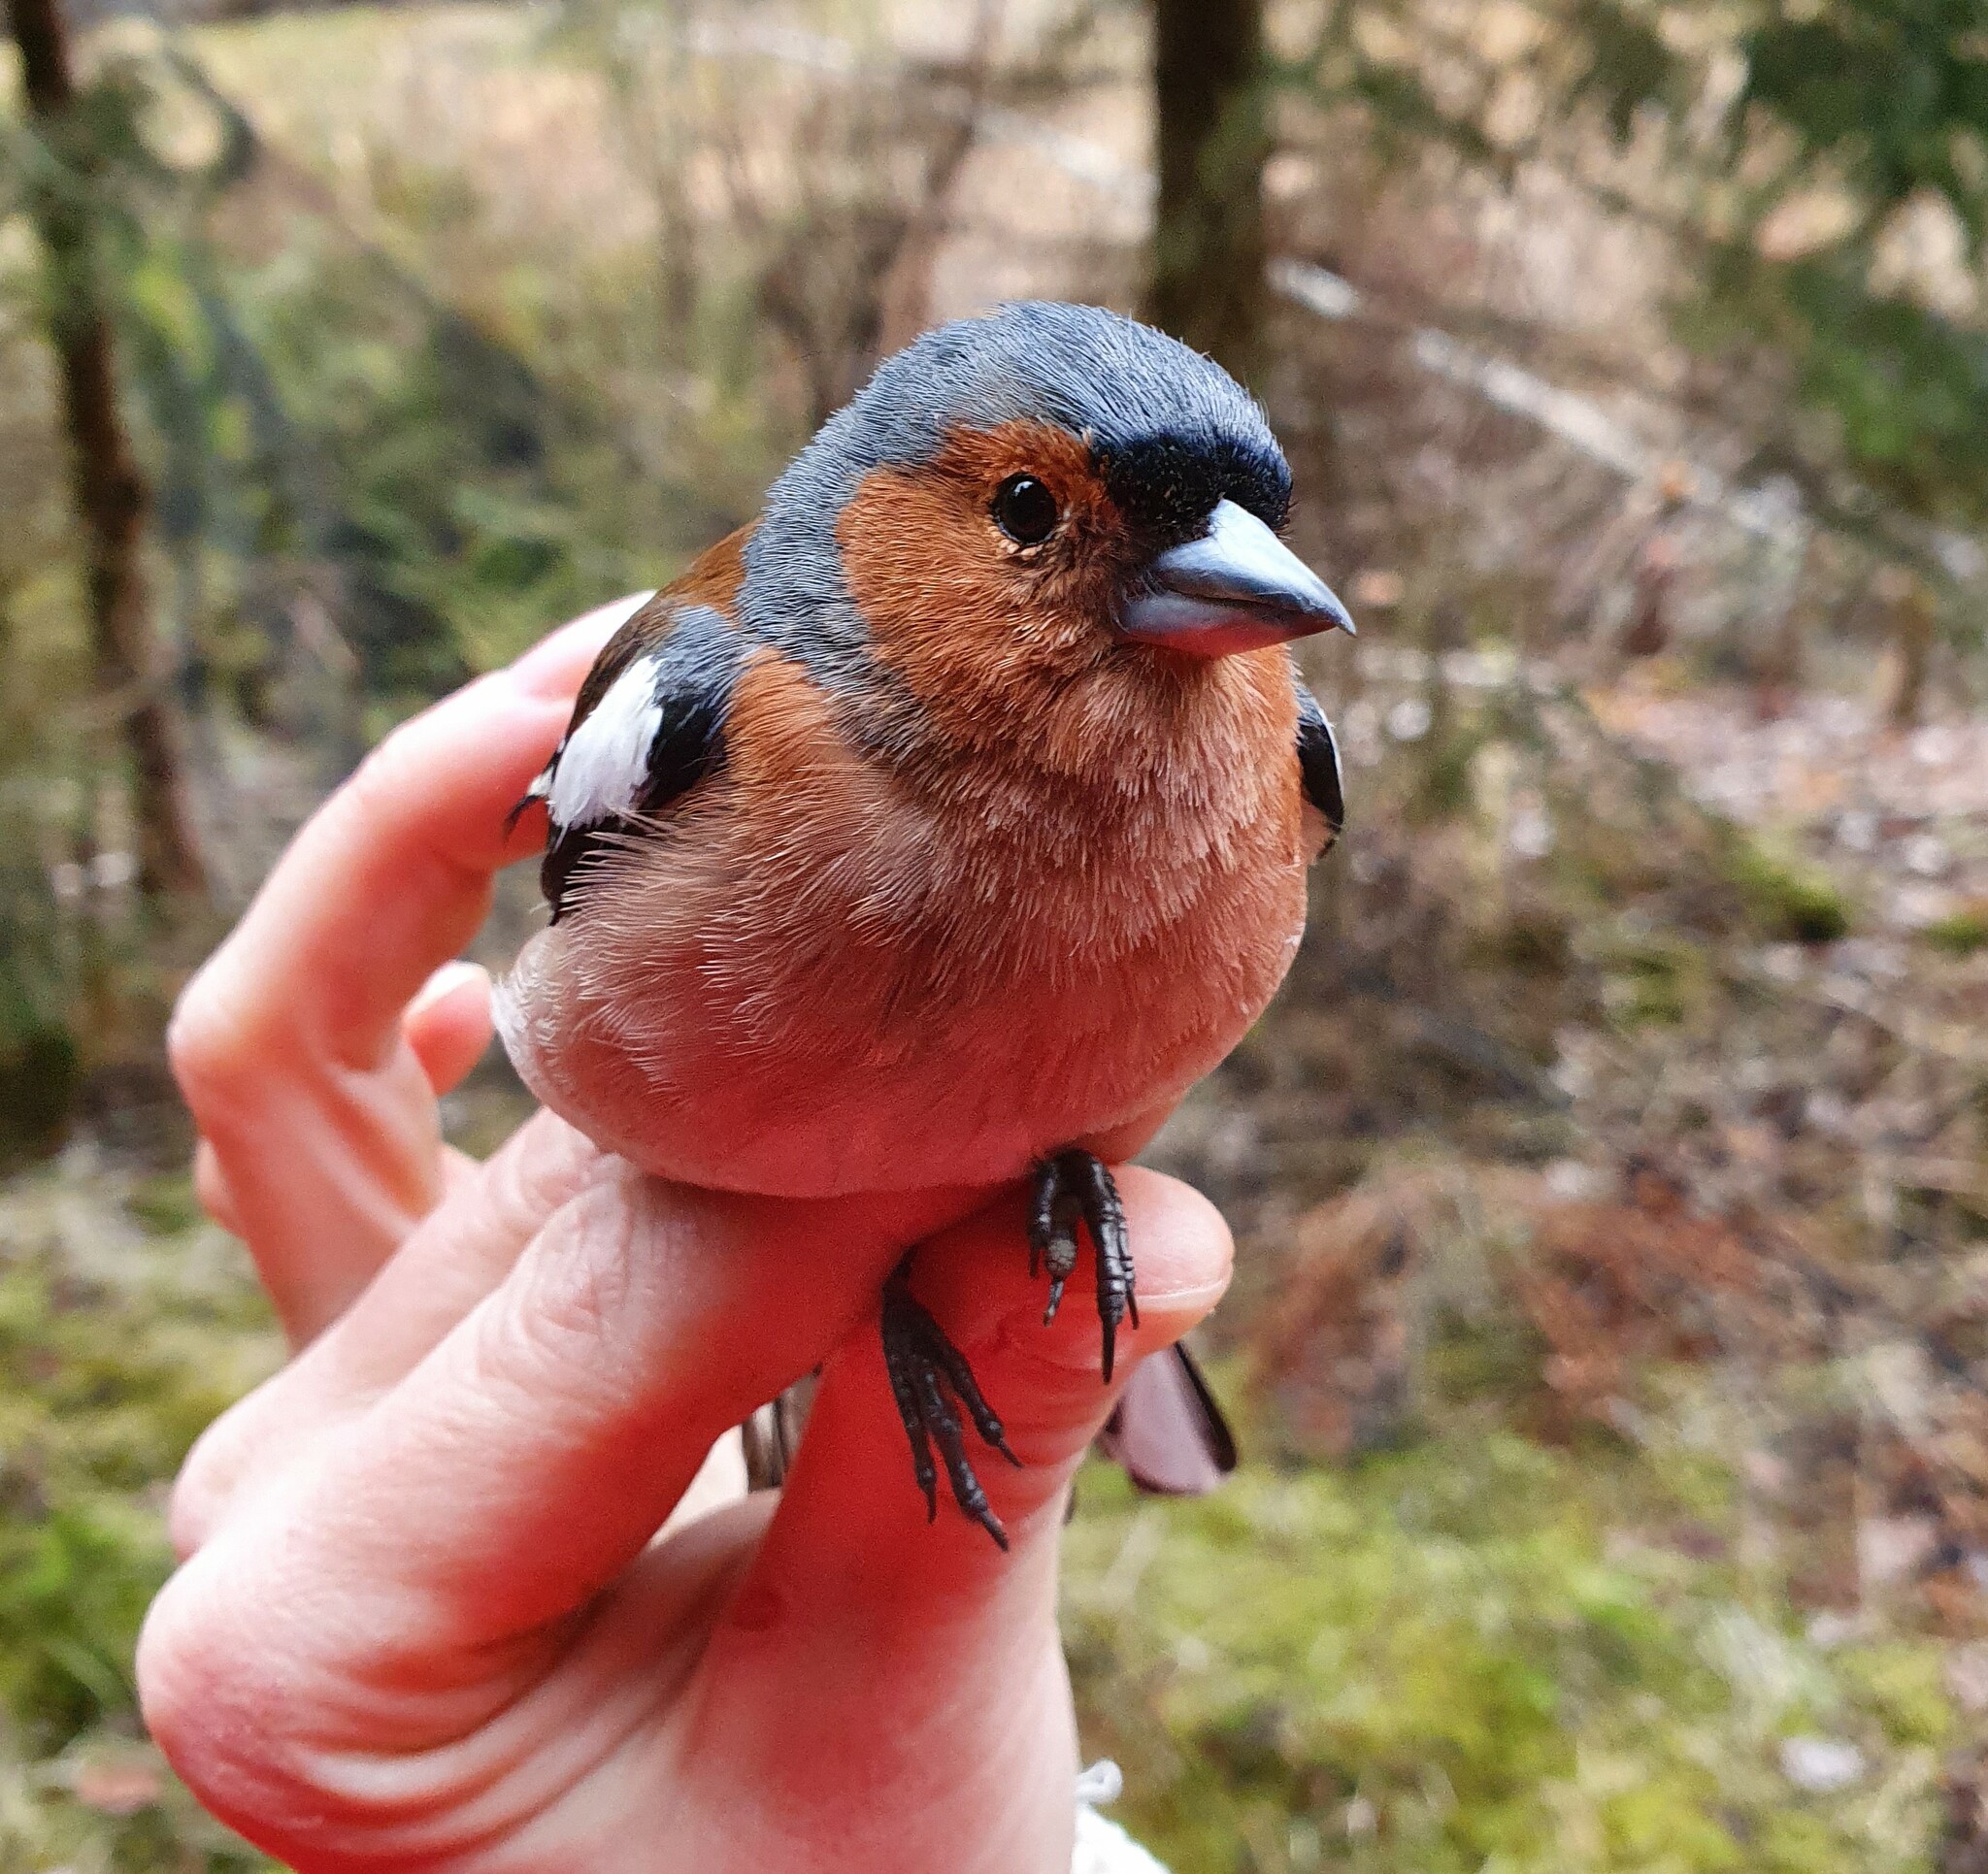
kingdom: Animalia
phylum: Chordata
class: Aves
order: Passeriformes
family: Fringillidae
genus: Fringilla
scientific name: Fringilla coelebs
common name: Common chaffinch
